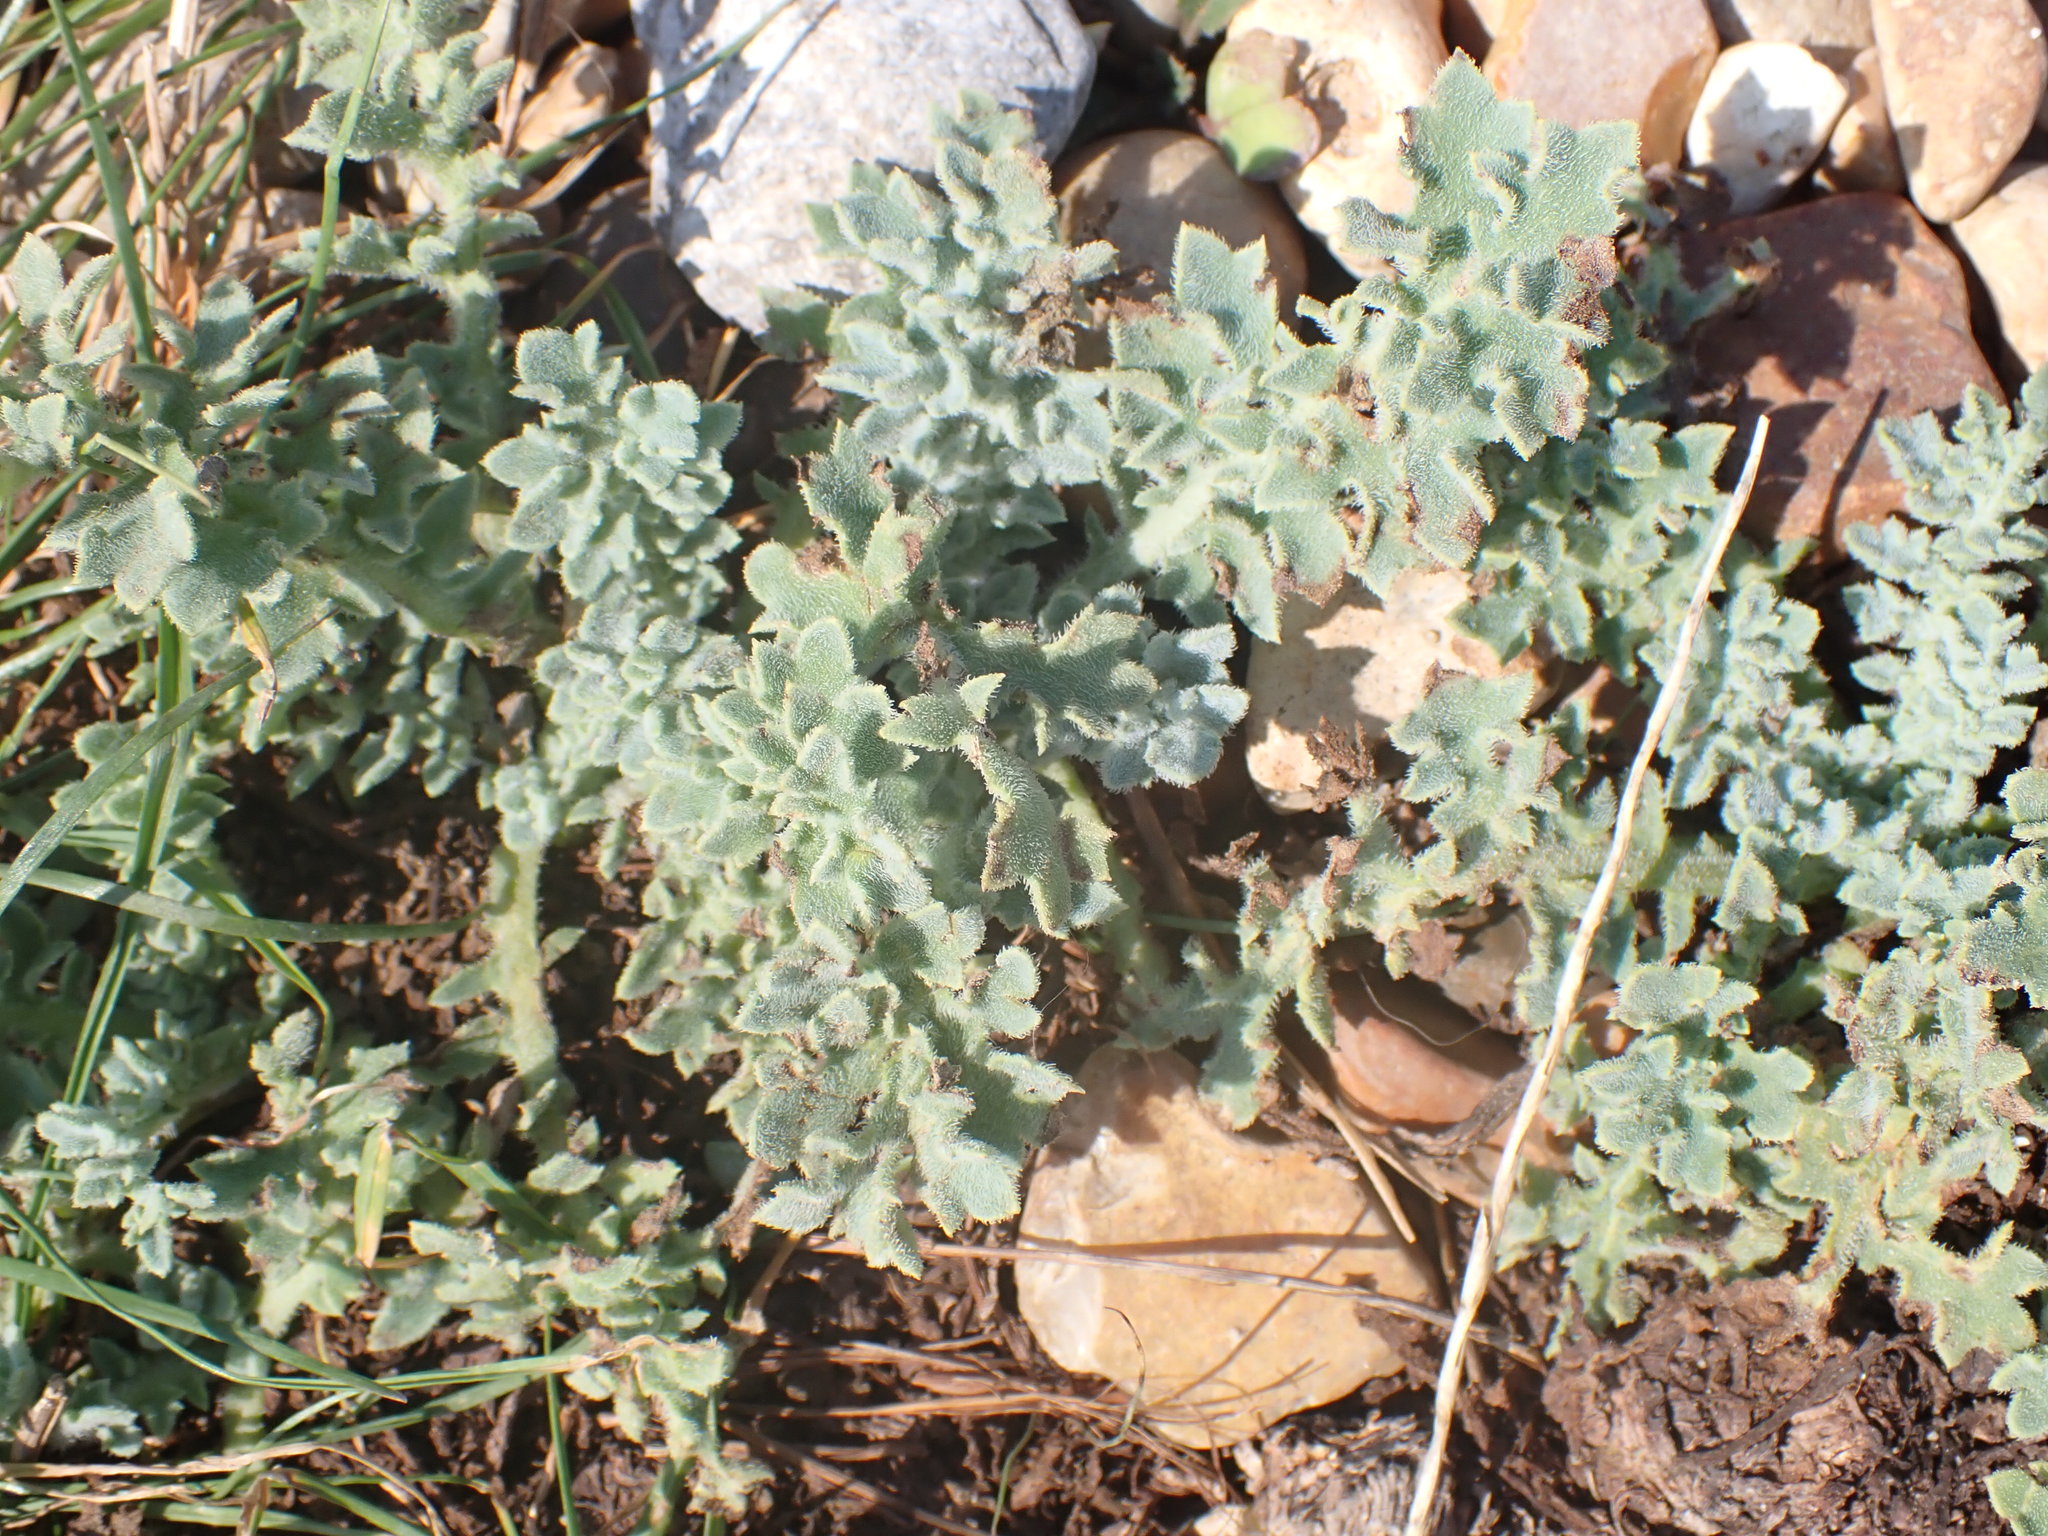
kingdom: Plantae
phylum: Tracheophyta
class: Magnoliopsida
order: Ranunculales
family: Papaveraceae
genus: Glaucium
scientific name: Glaucium flavum
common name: Yellow horned-poppy
